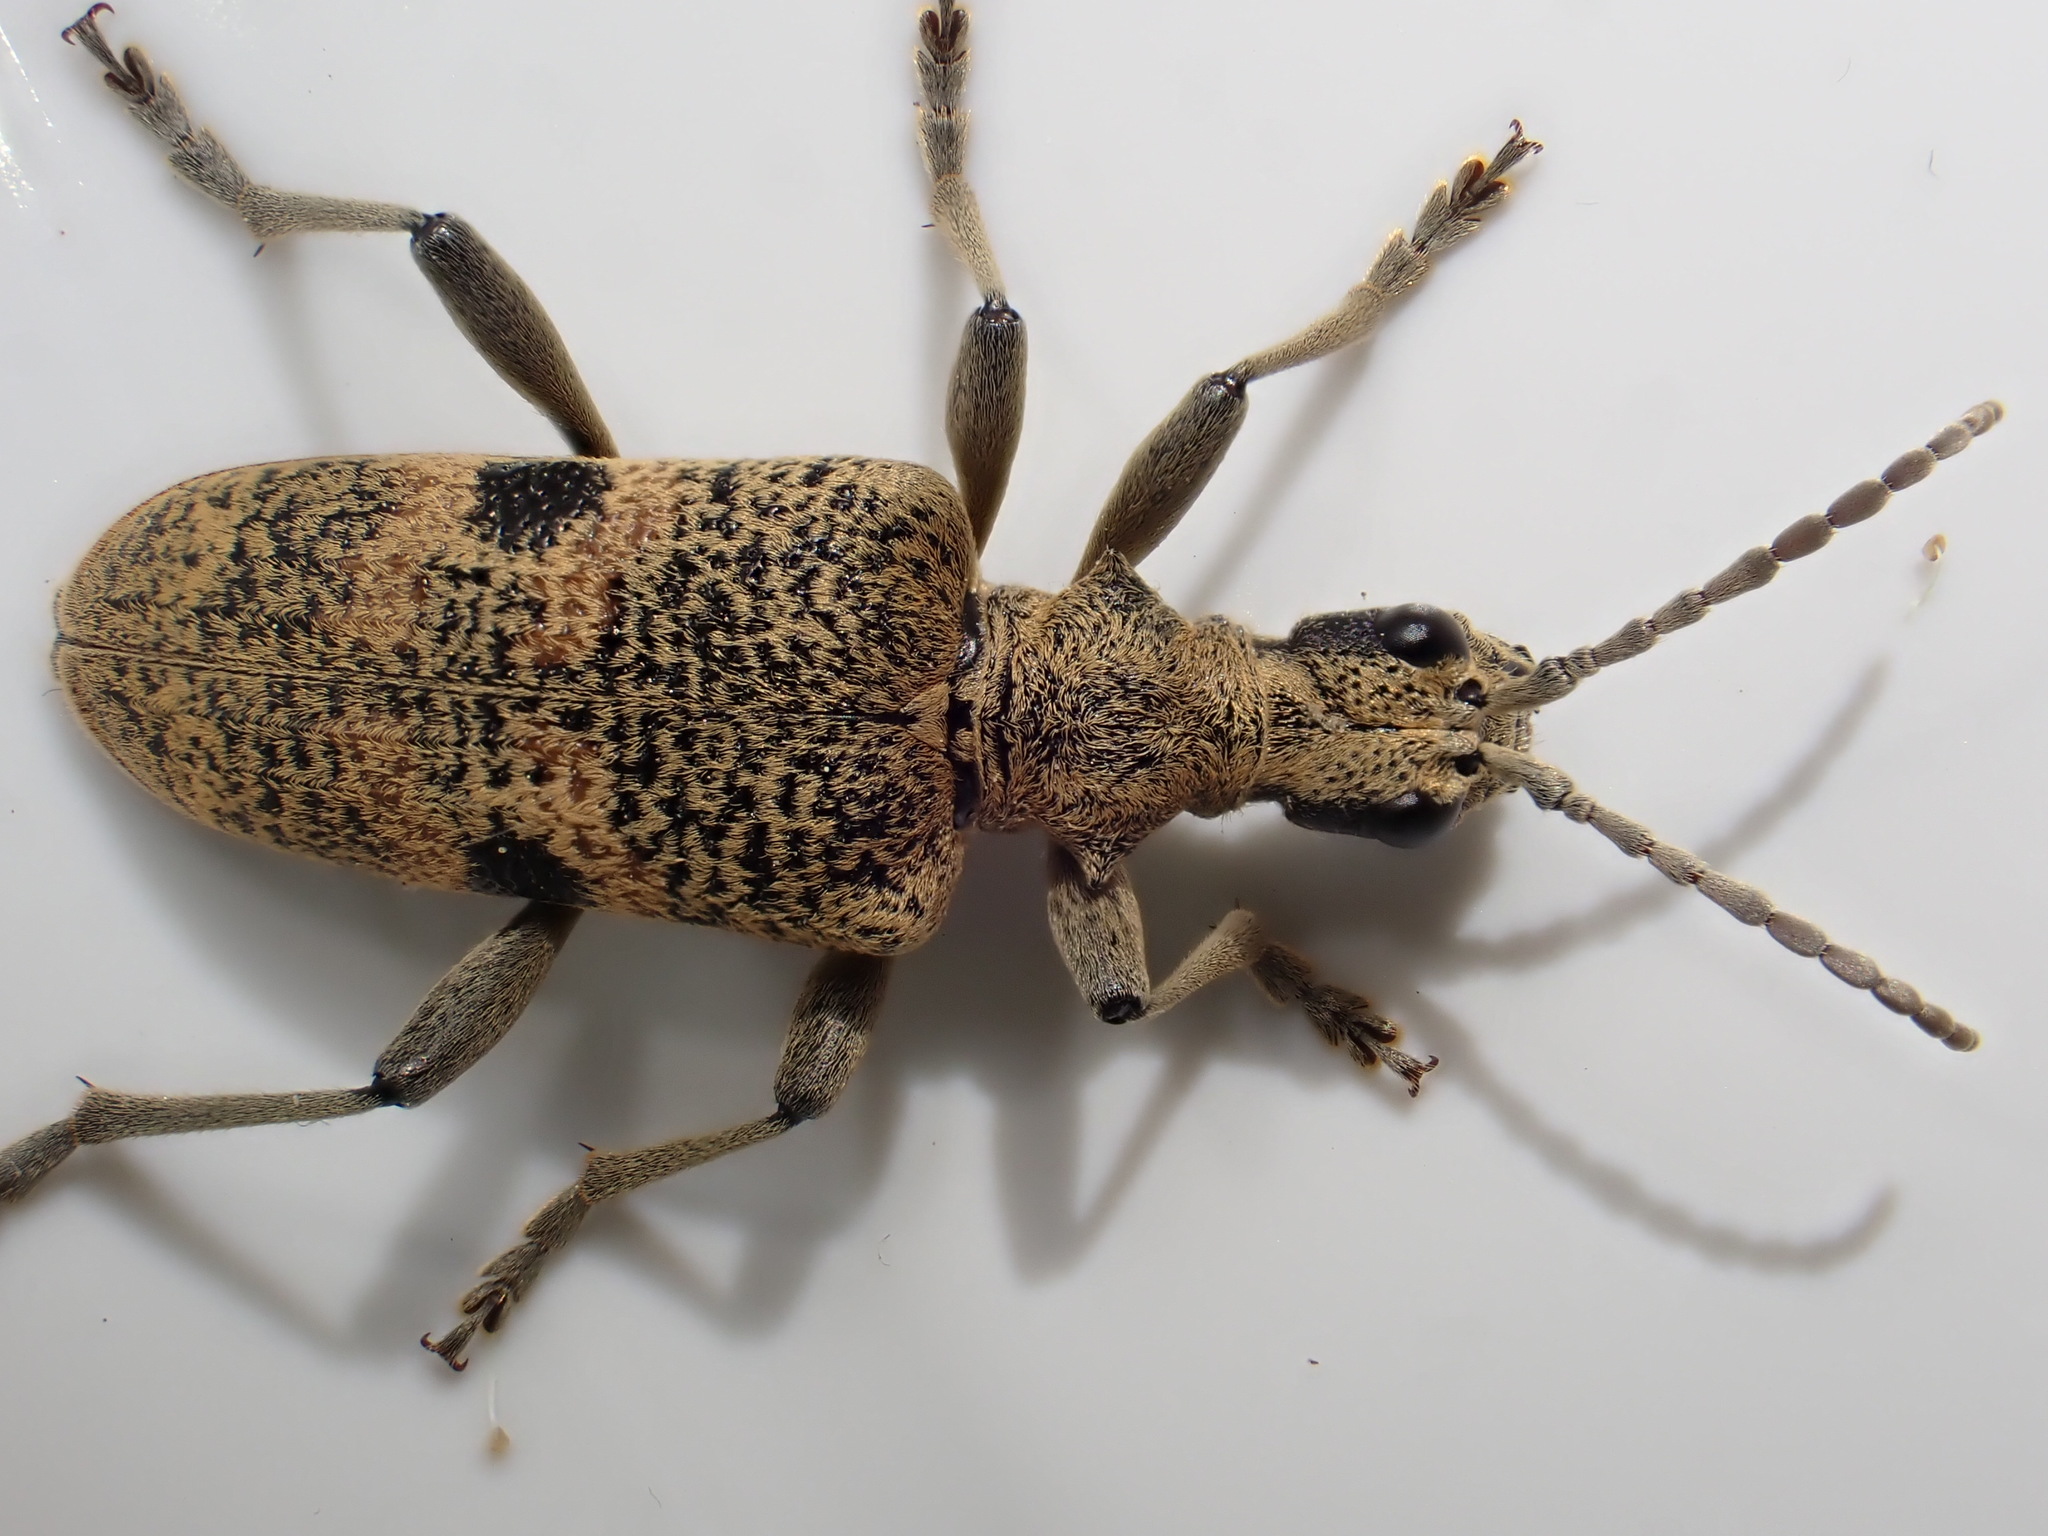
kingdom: Animalia
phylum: Arthropoda
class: Insecta
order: Coleoptera
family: Cerambycidae
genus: Rhagium
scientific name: Rhagium mordax
